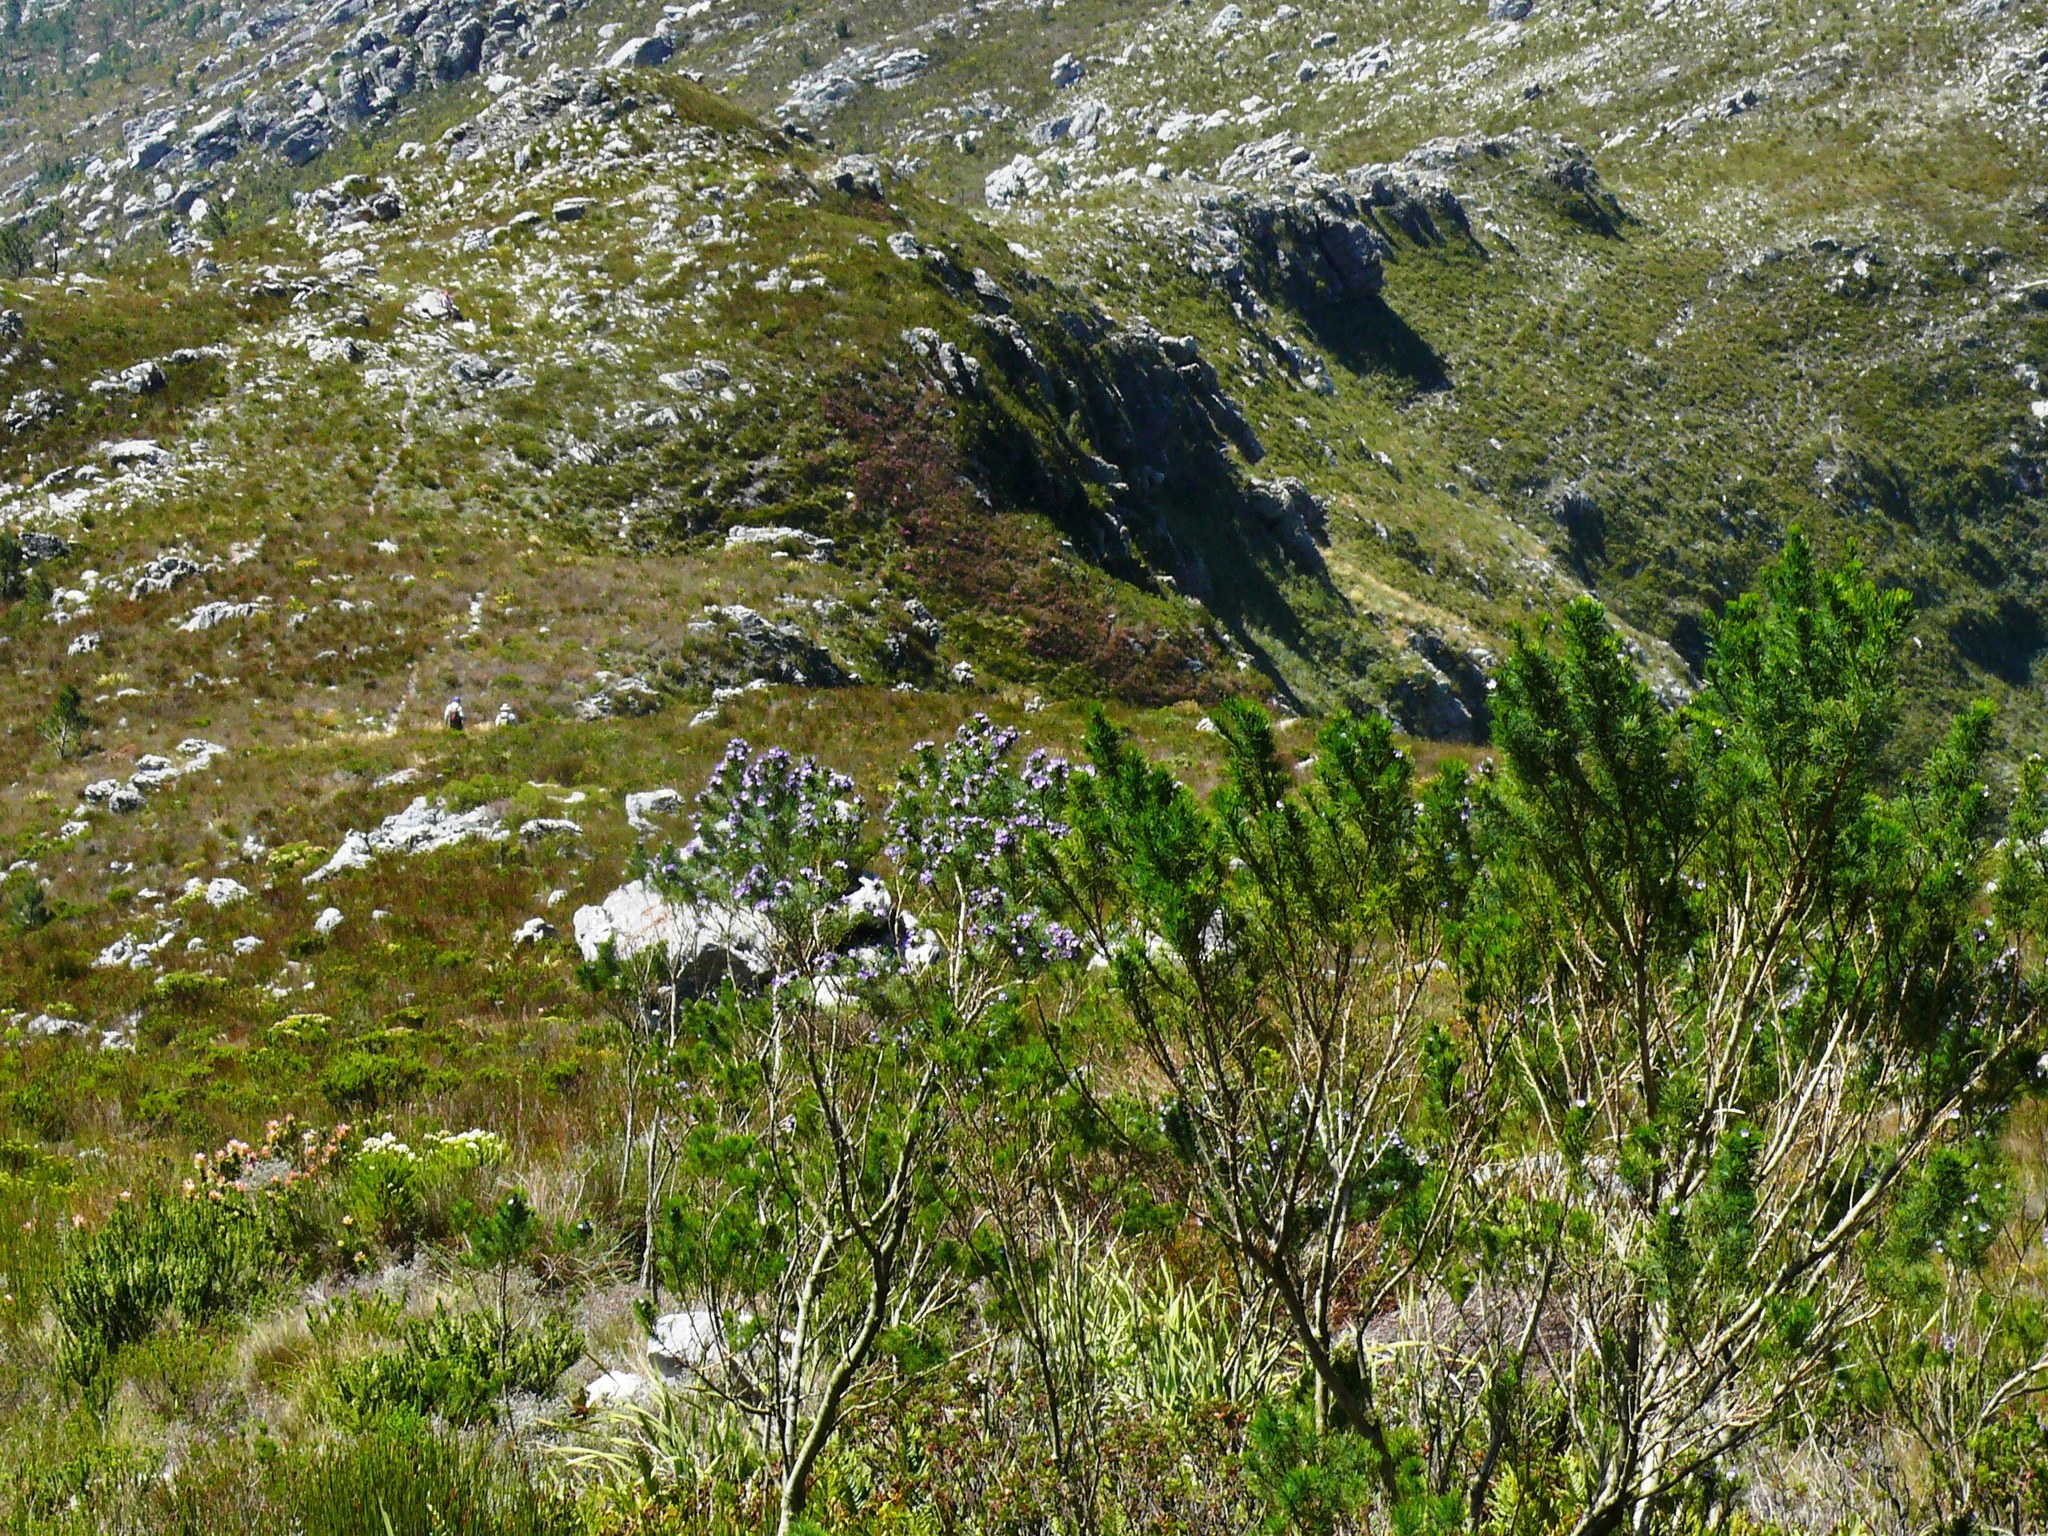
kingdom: Plantae
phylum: Tracheophyta
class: Magnoliopsida
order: Fabales
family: Fabaceae
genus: Psoralea
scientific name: Psoralea ivumba
